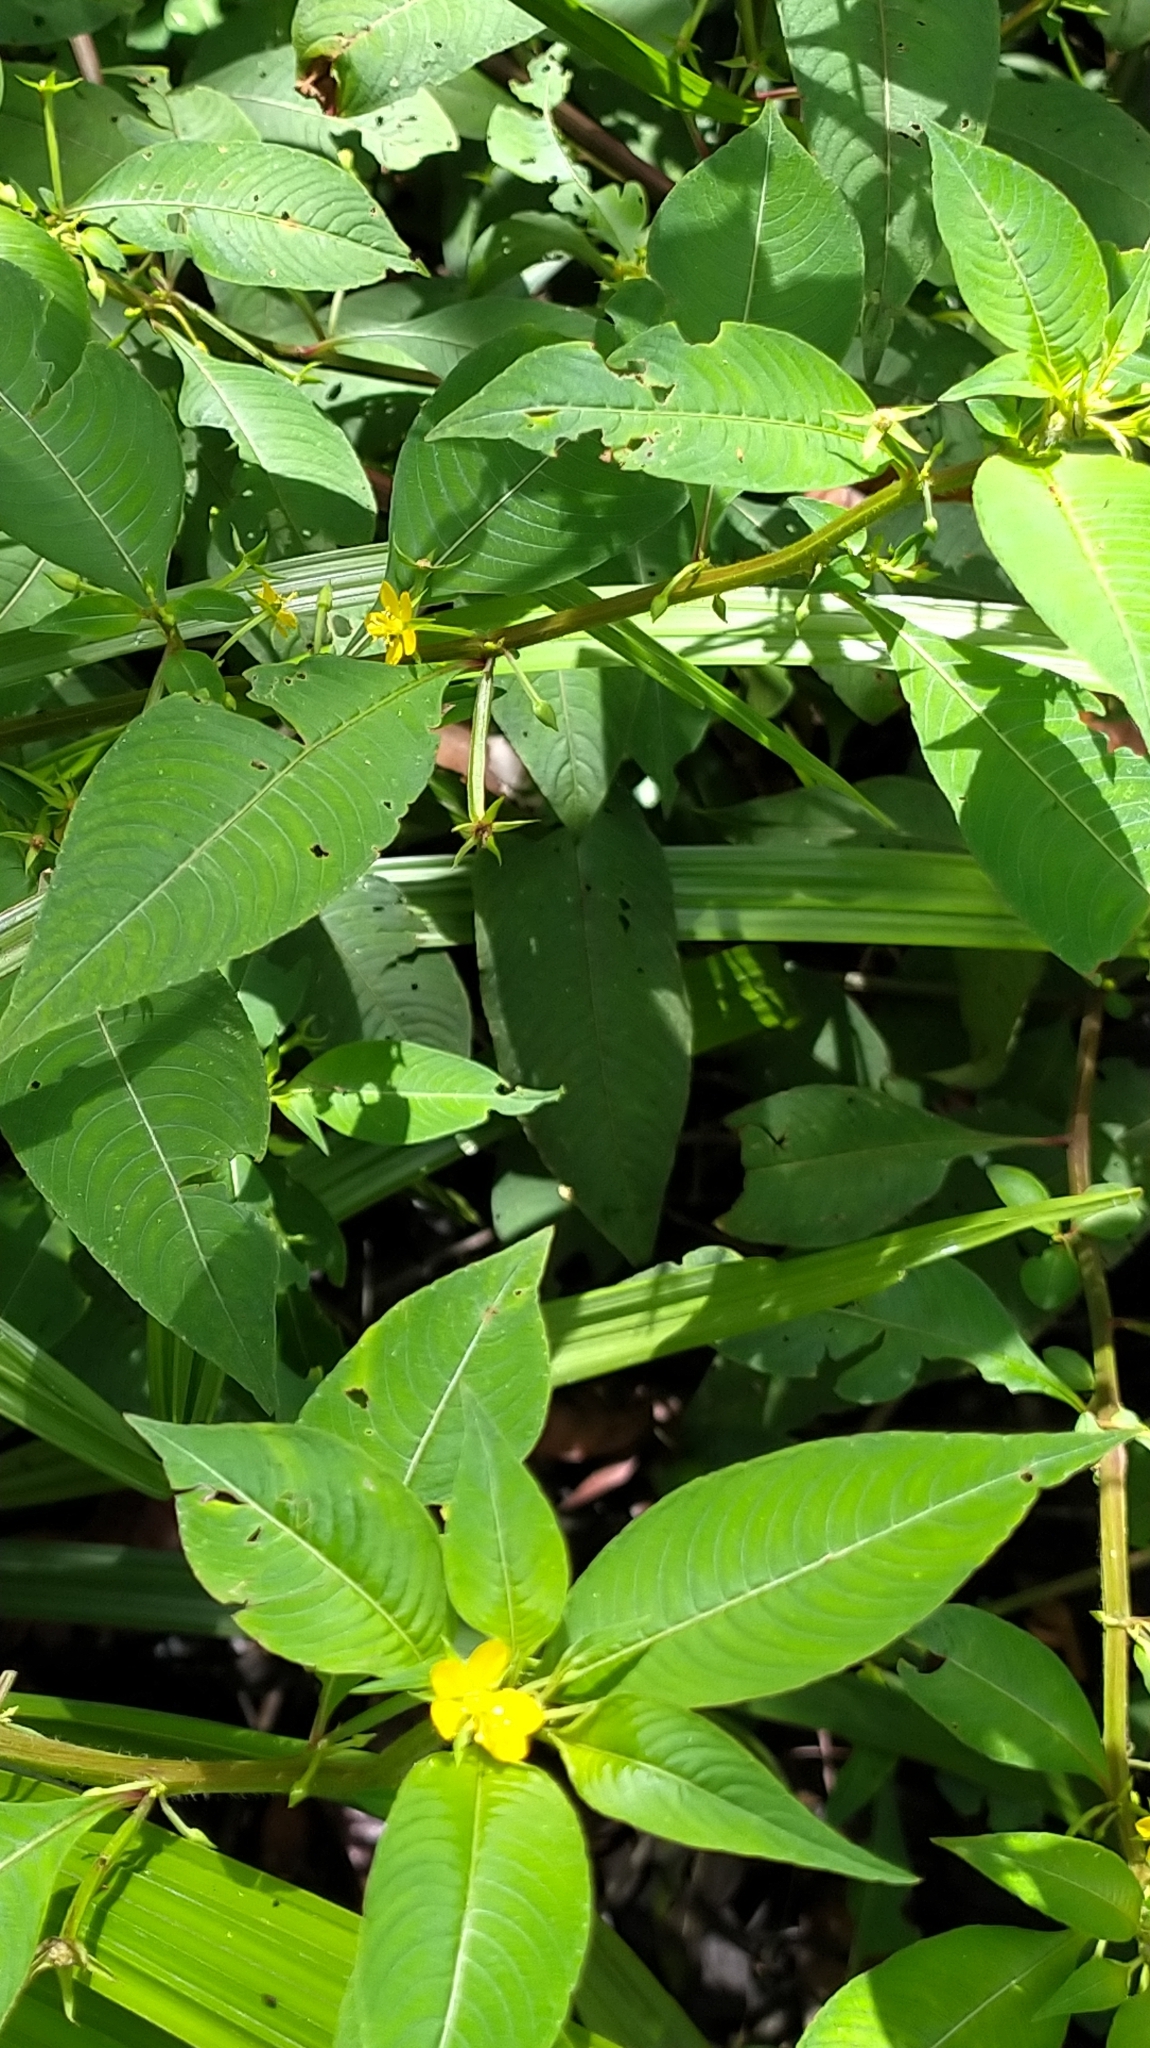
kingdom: Plantae
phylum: Tracheophyta
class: Magnoliopsida
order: Myrtales
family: Onagraceae
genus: Ludwigia
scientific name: Ludwigia dodecandra
